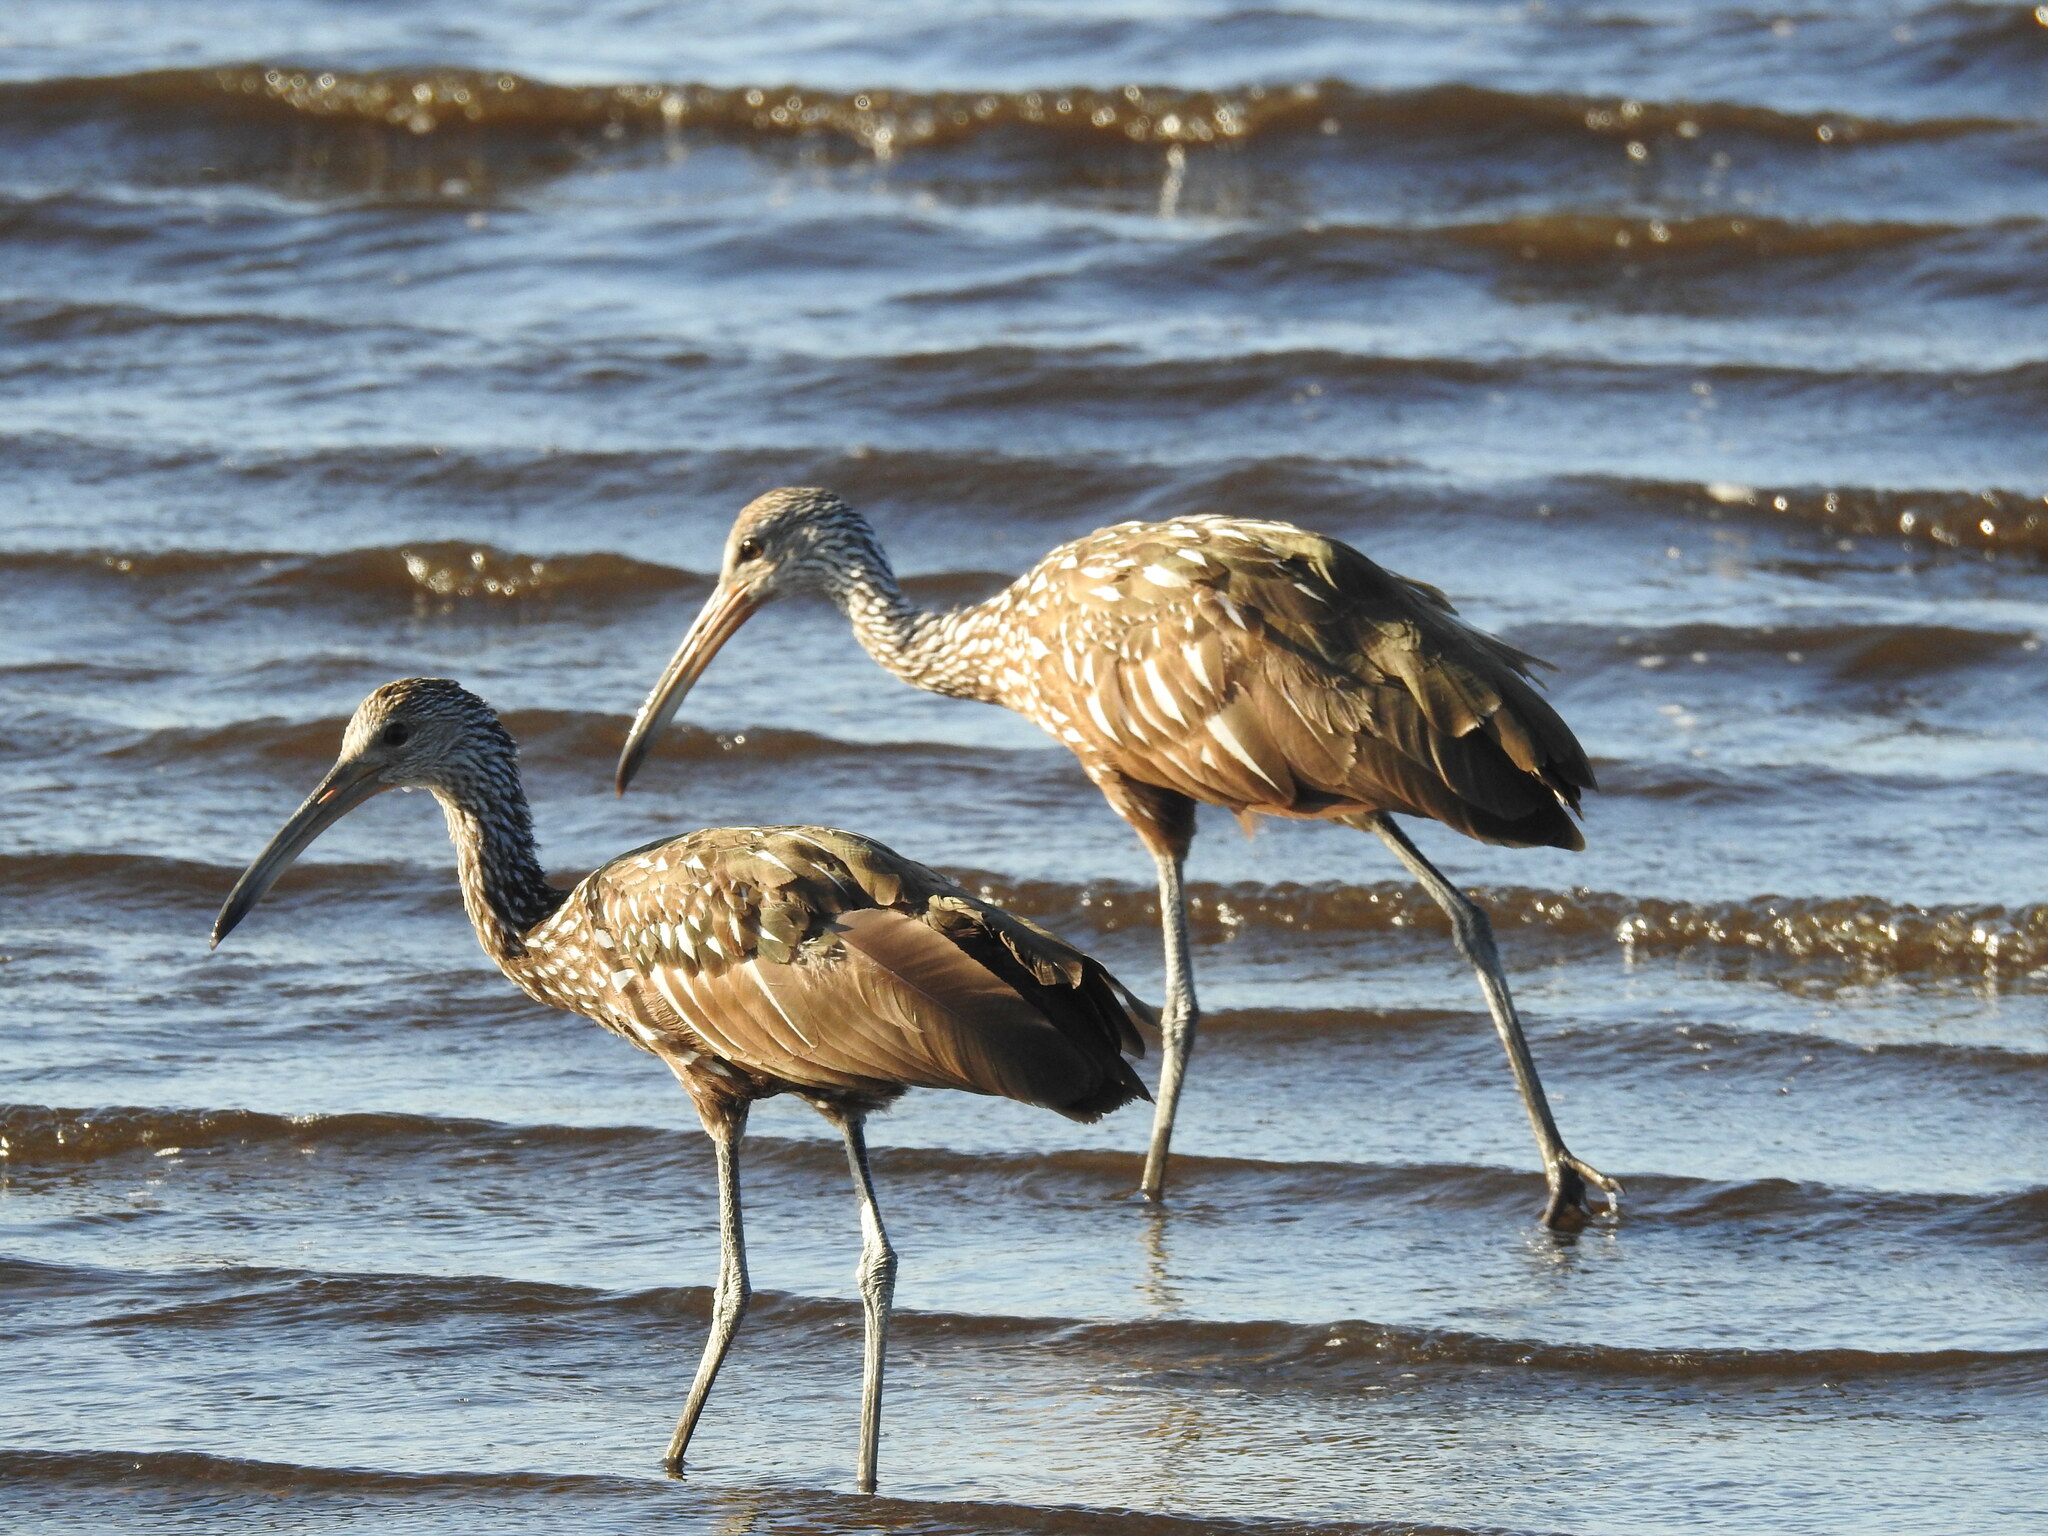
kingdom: Animalia
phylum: Chordata
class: Aves
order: Gruiformes
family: Aramidae
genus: Aramus
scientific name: Aramus guarauna
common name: Limpkin
